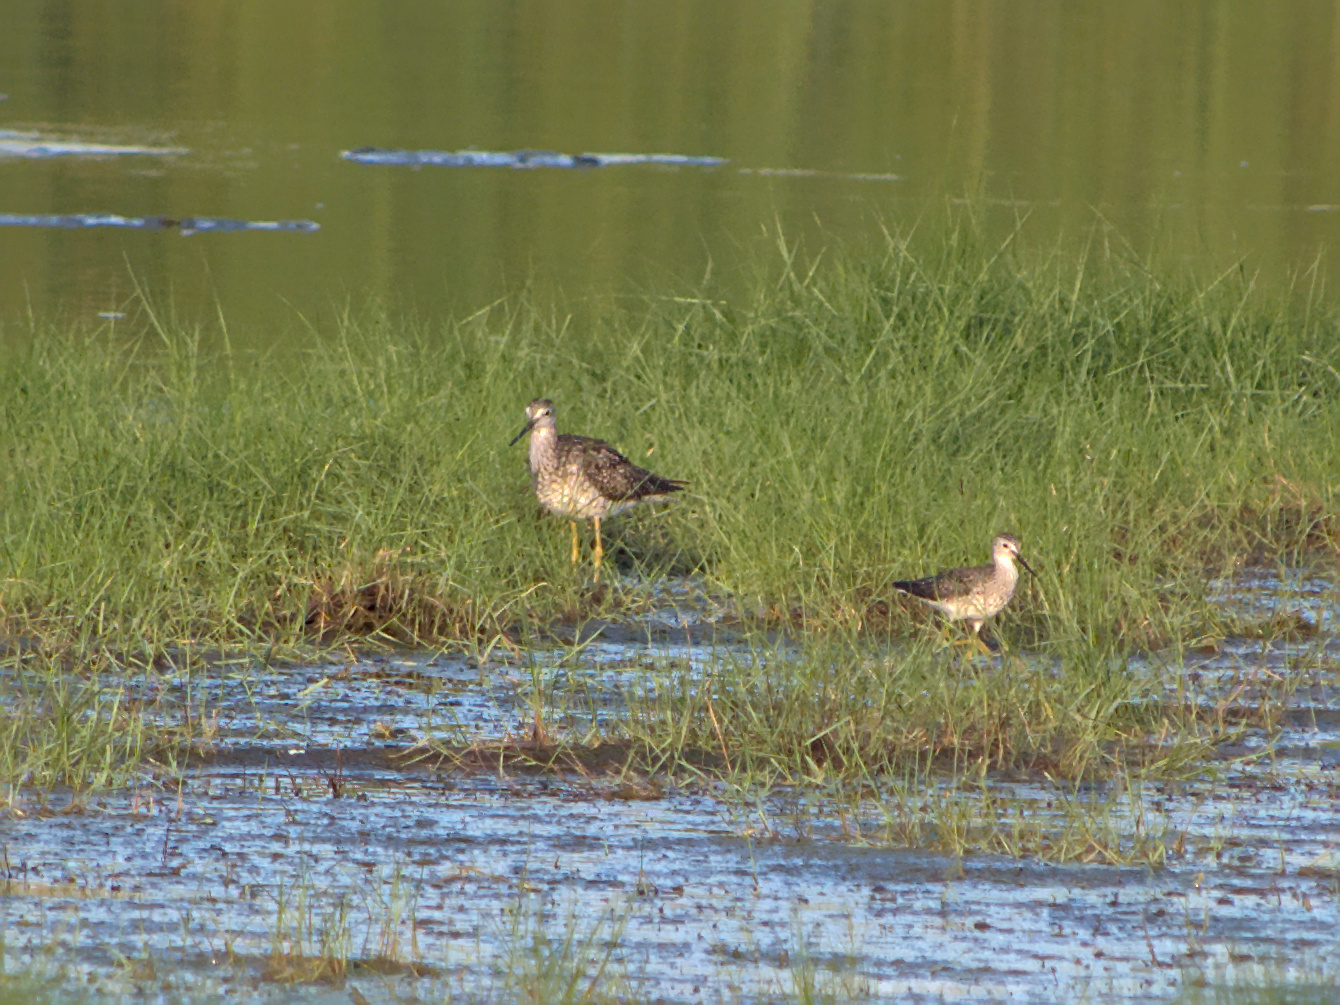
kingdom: Animalia
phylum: Chordata
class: Aves
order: Charadriiformes
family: Scolopacidae
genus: Tringa
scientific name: Tringa melanoleuca
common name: Greater yellowlegs
